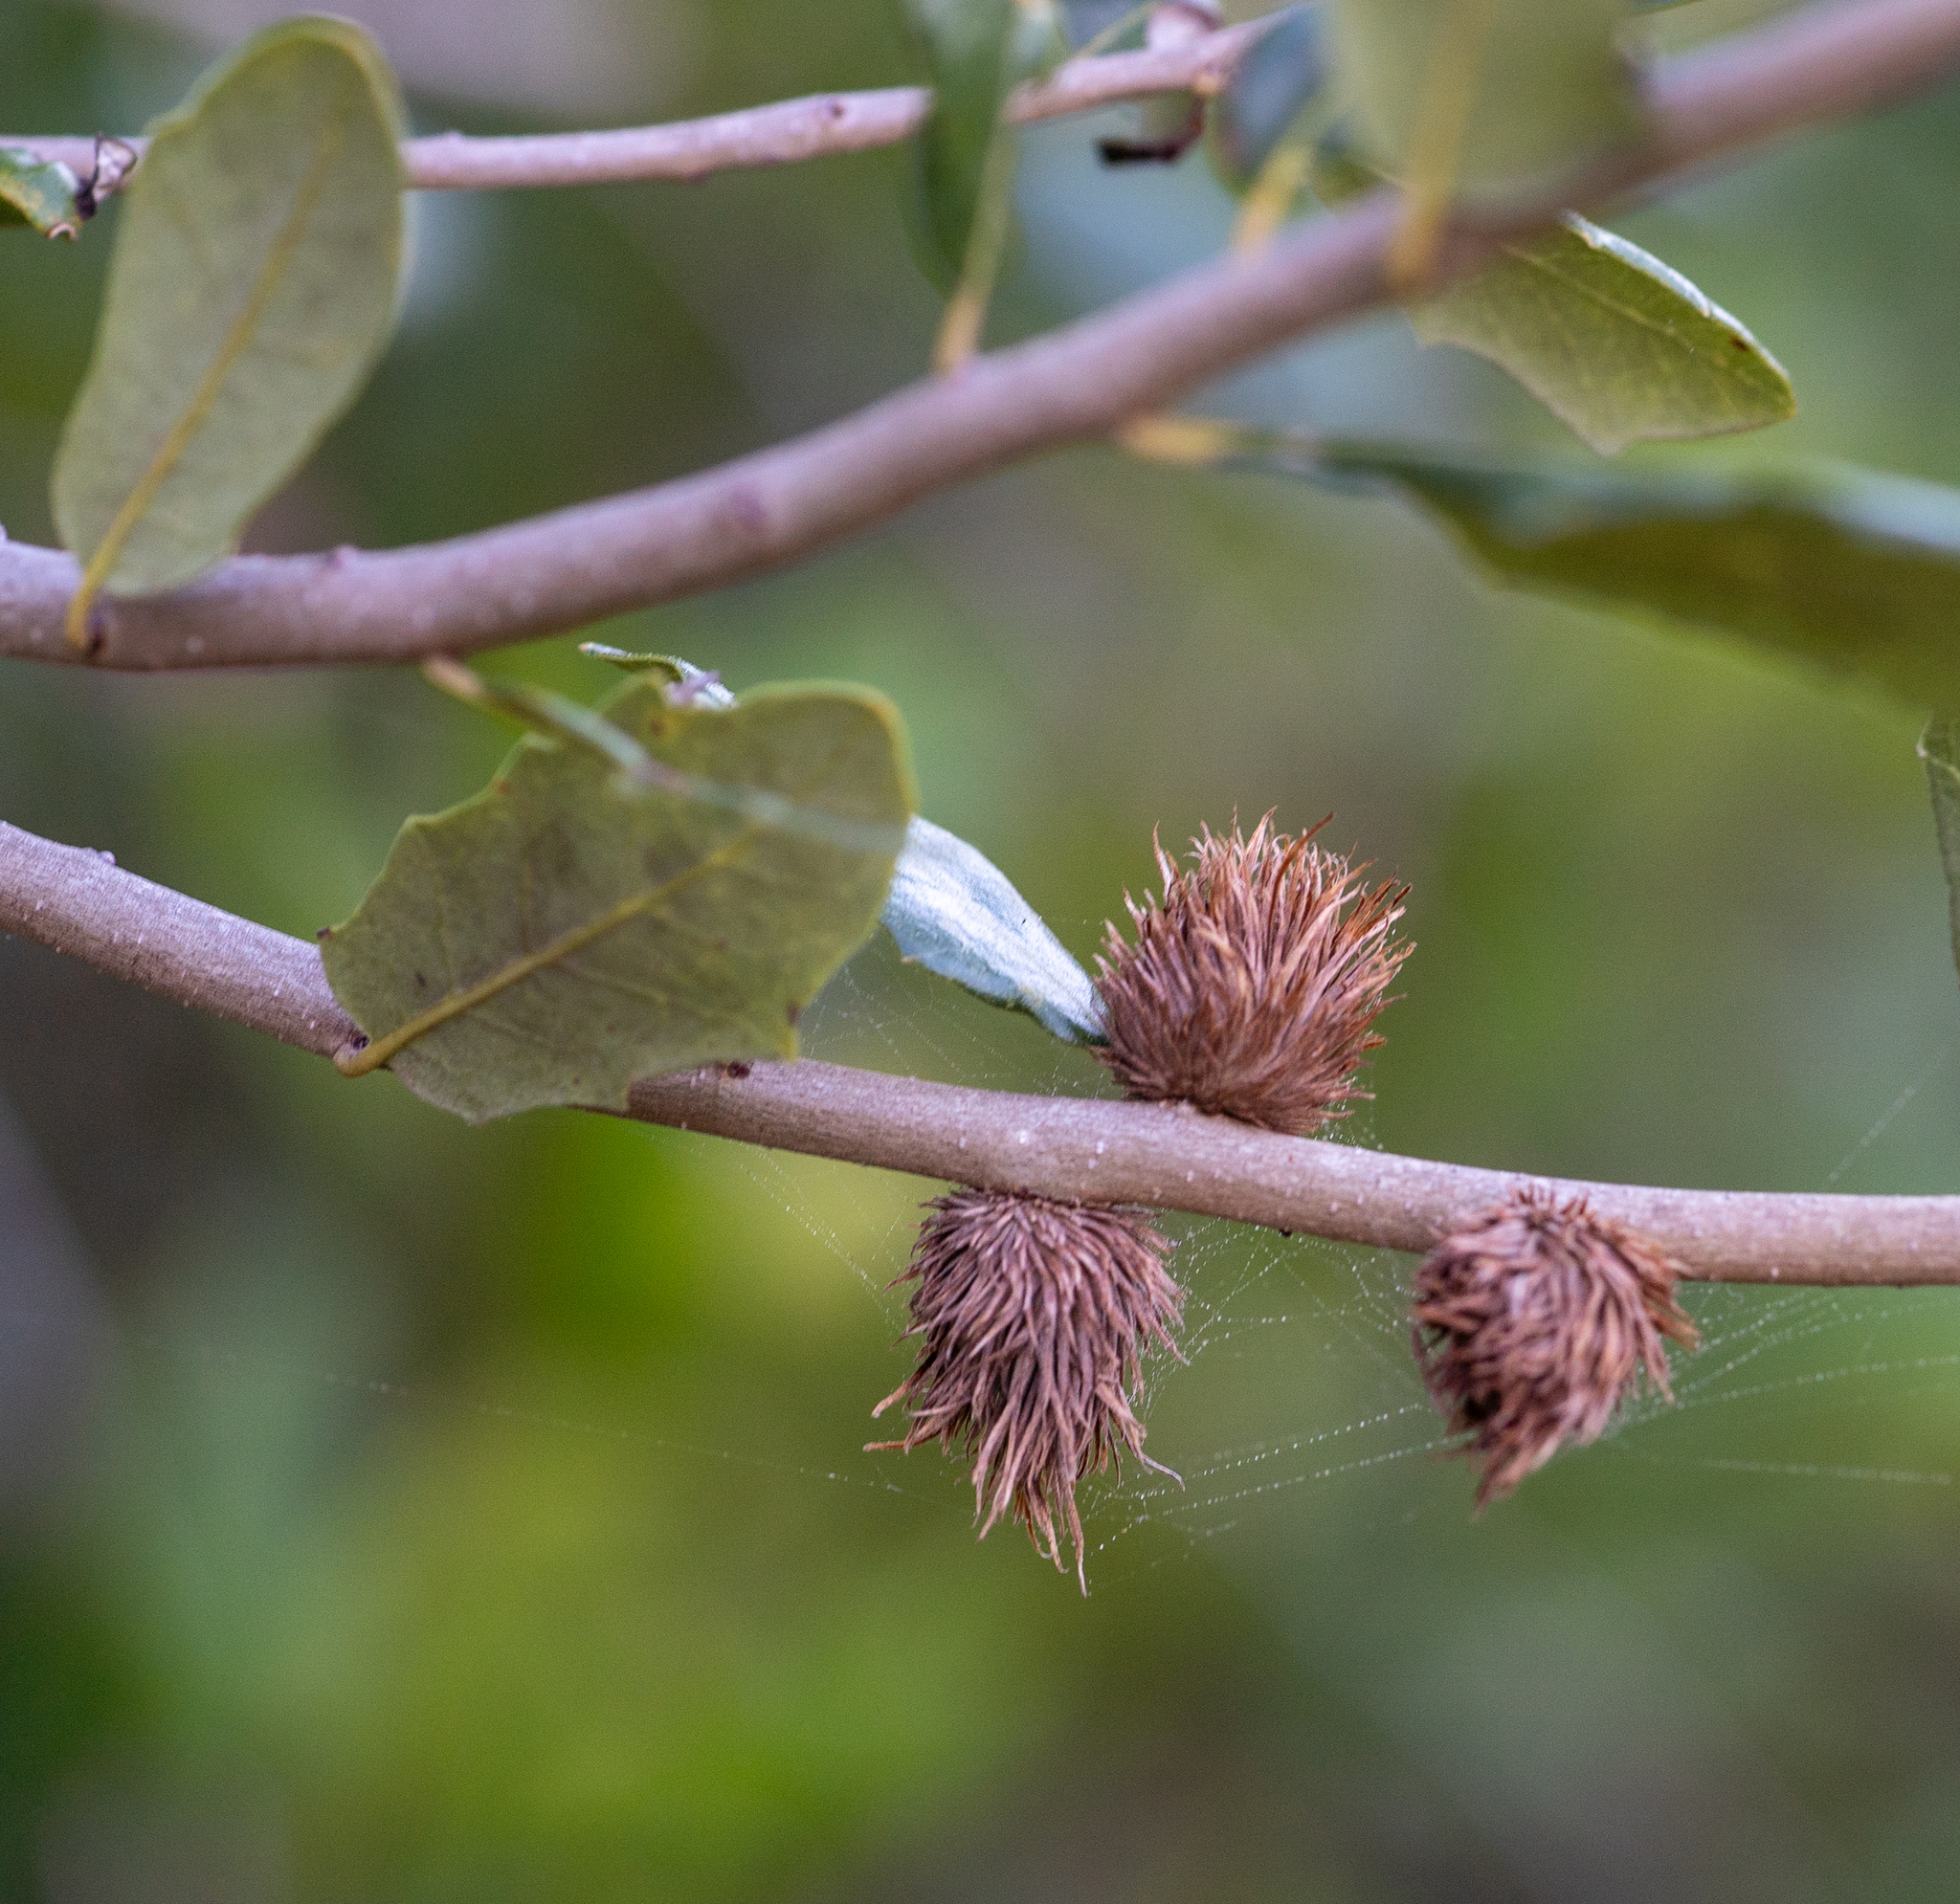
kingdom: Animalia
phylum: Arthropoda
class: Insecta
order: Hymenoptera
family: Cynipidae
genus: Andricus
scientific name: Andricus quercusfoliatus
